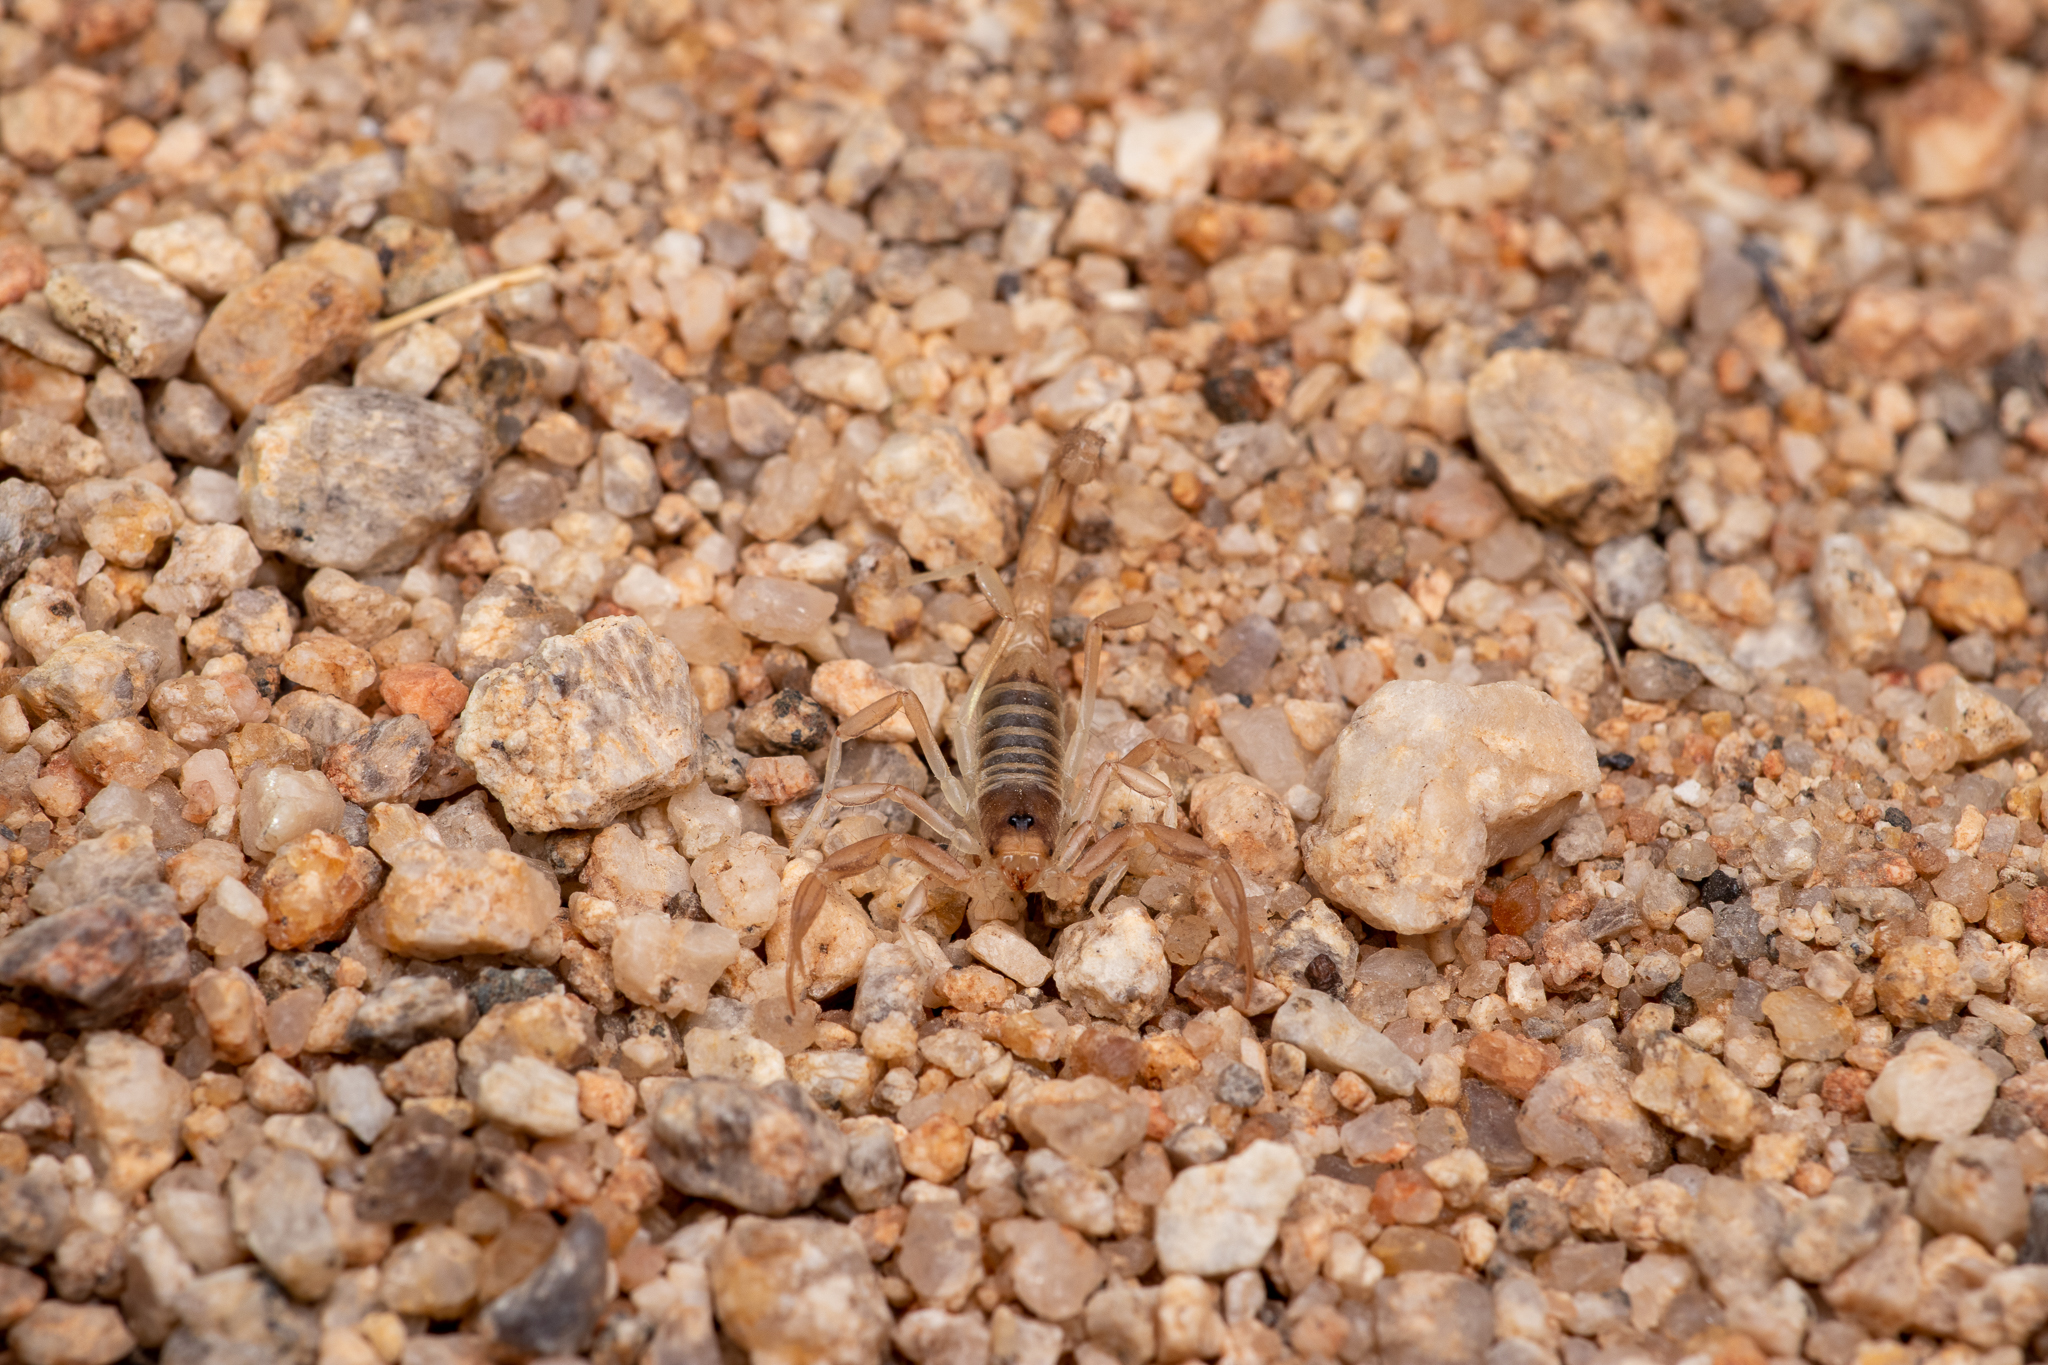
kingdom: Animalia
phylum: Arthropoda
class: Arachnida
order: Scorpiones
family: Vaejovidae
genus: Paruroctonus
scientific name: Paruroctonus becki
